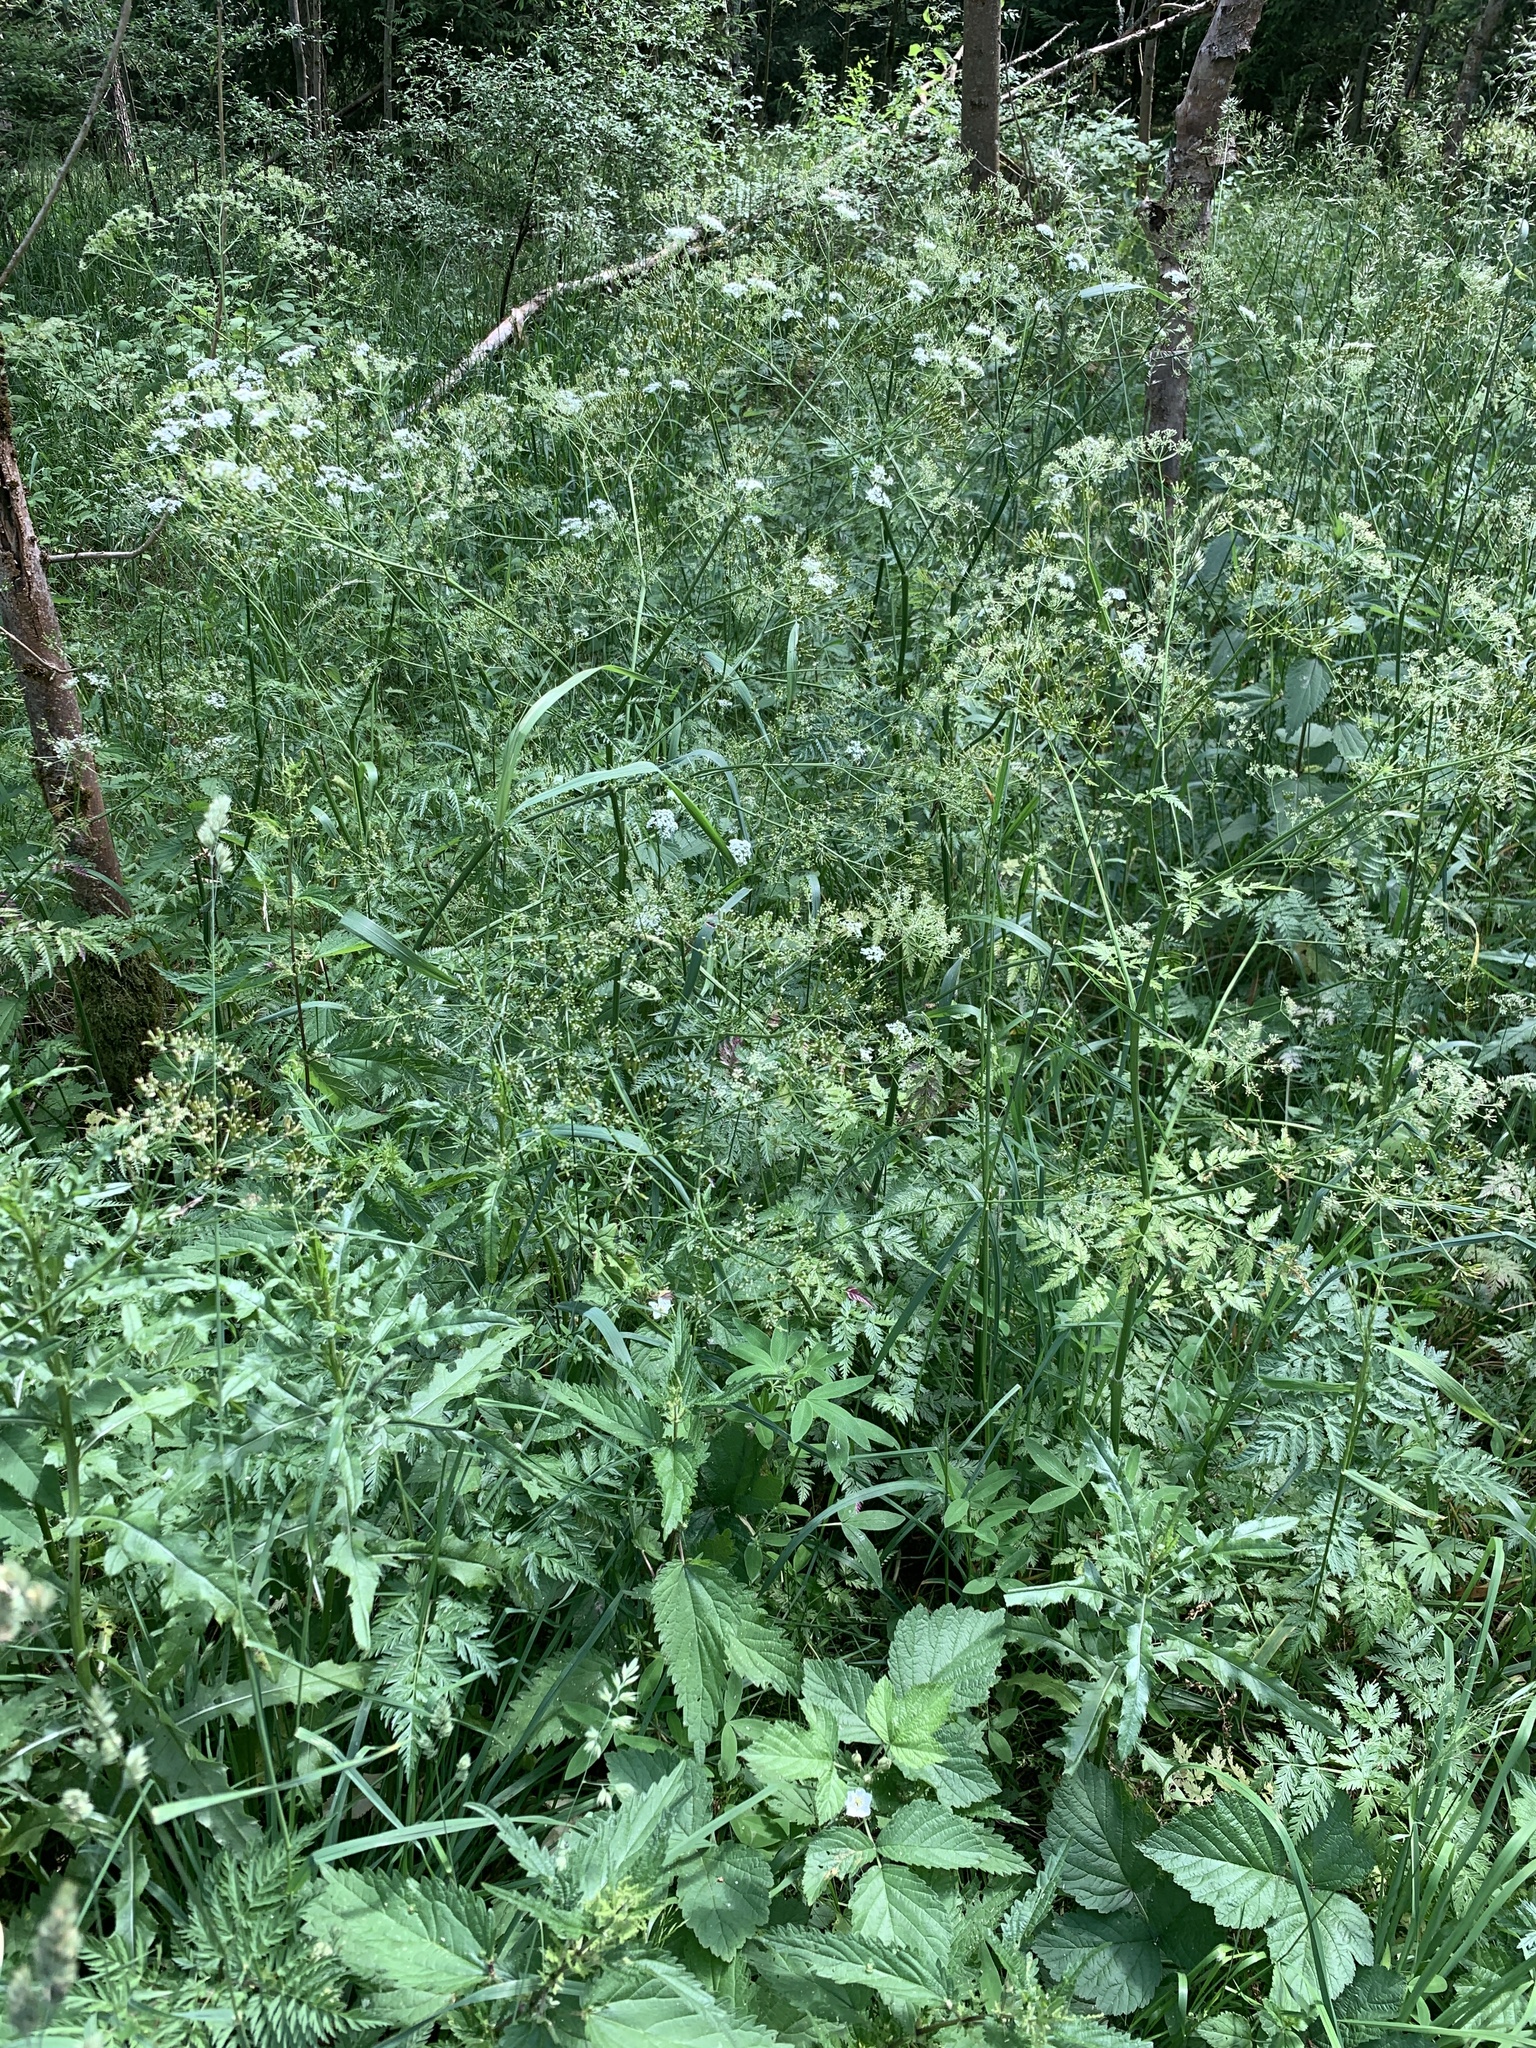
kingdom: Plantae
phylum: Tracheophyta
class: Magnoliopsida
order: Apiales
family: Apiaceae
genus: Anthriscus
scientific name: Anthriscus sylvestris
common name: Cow parsley
